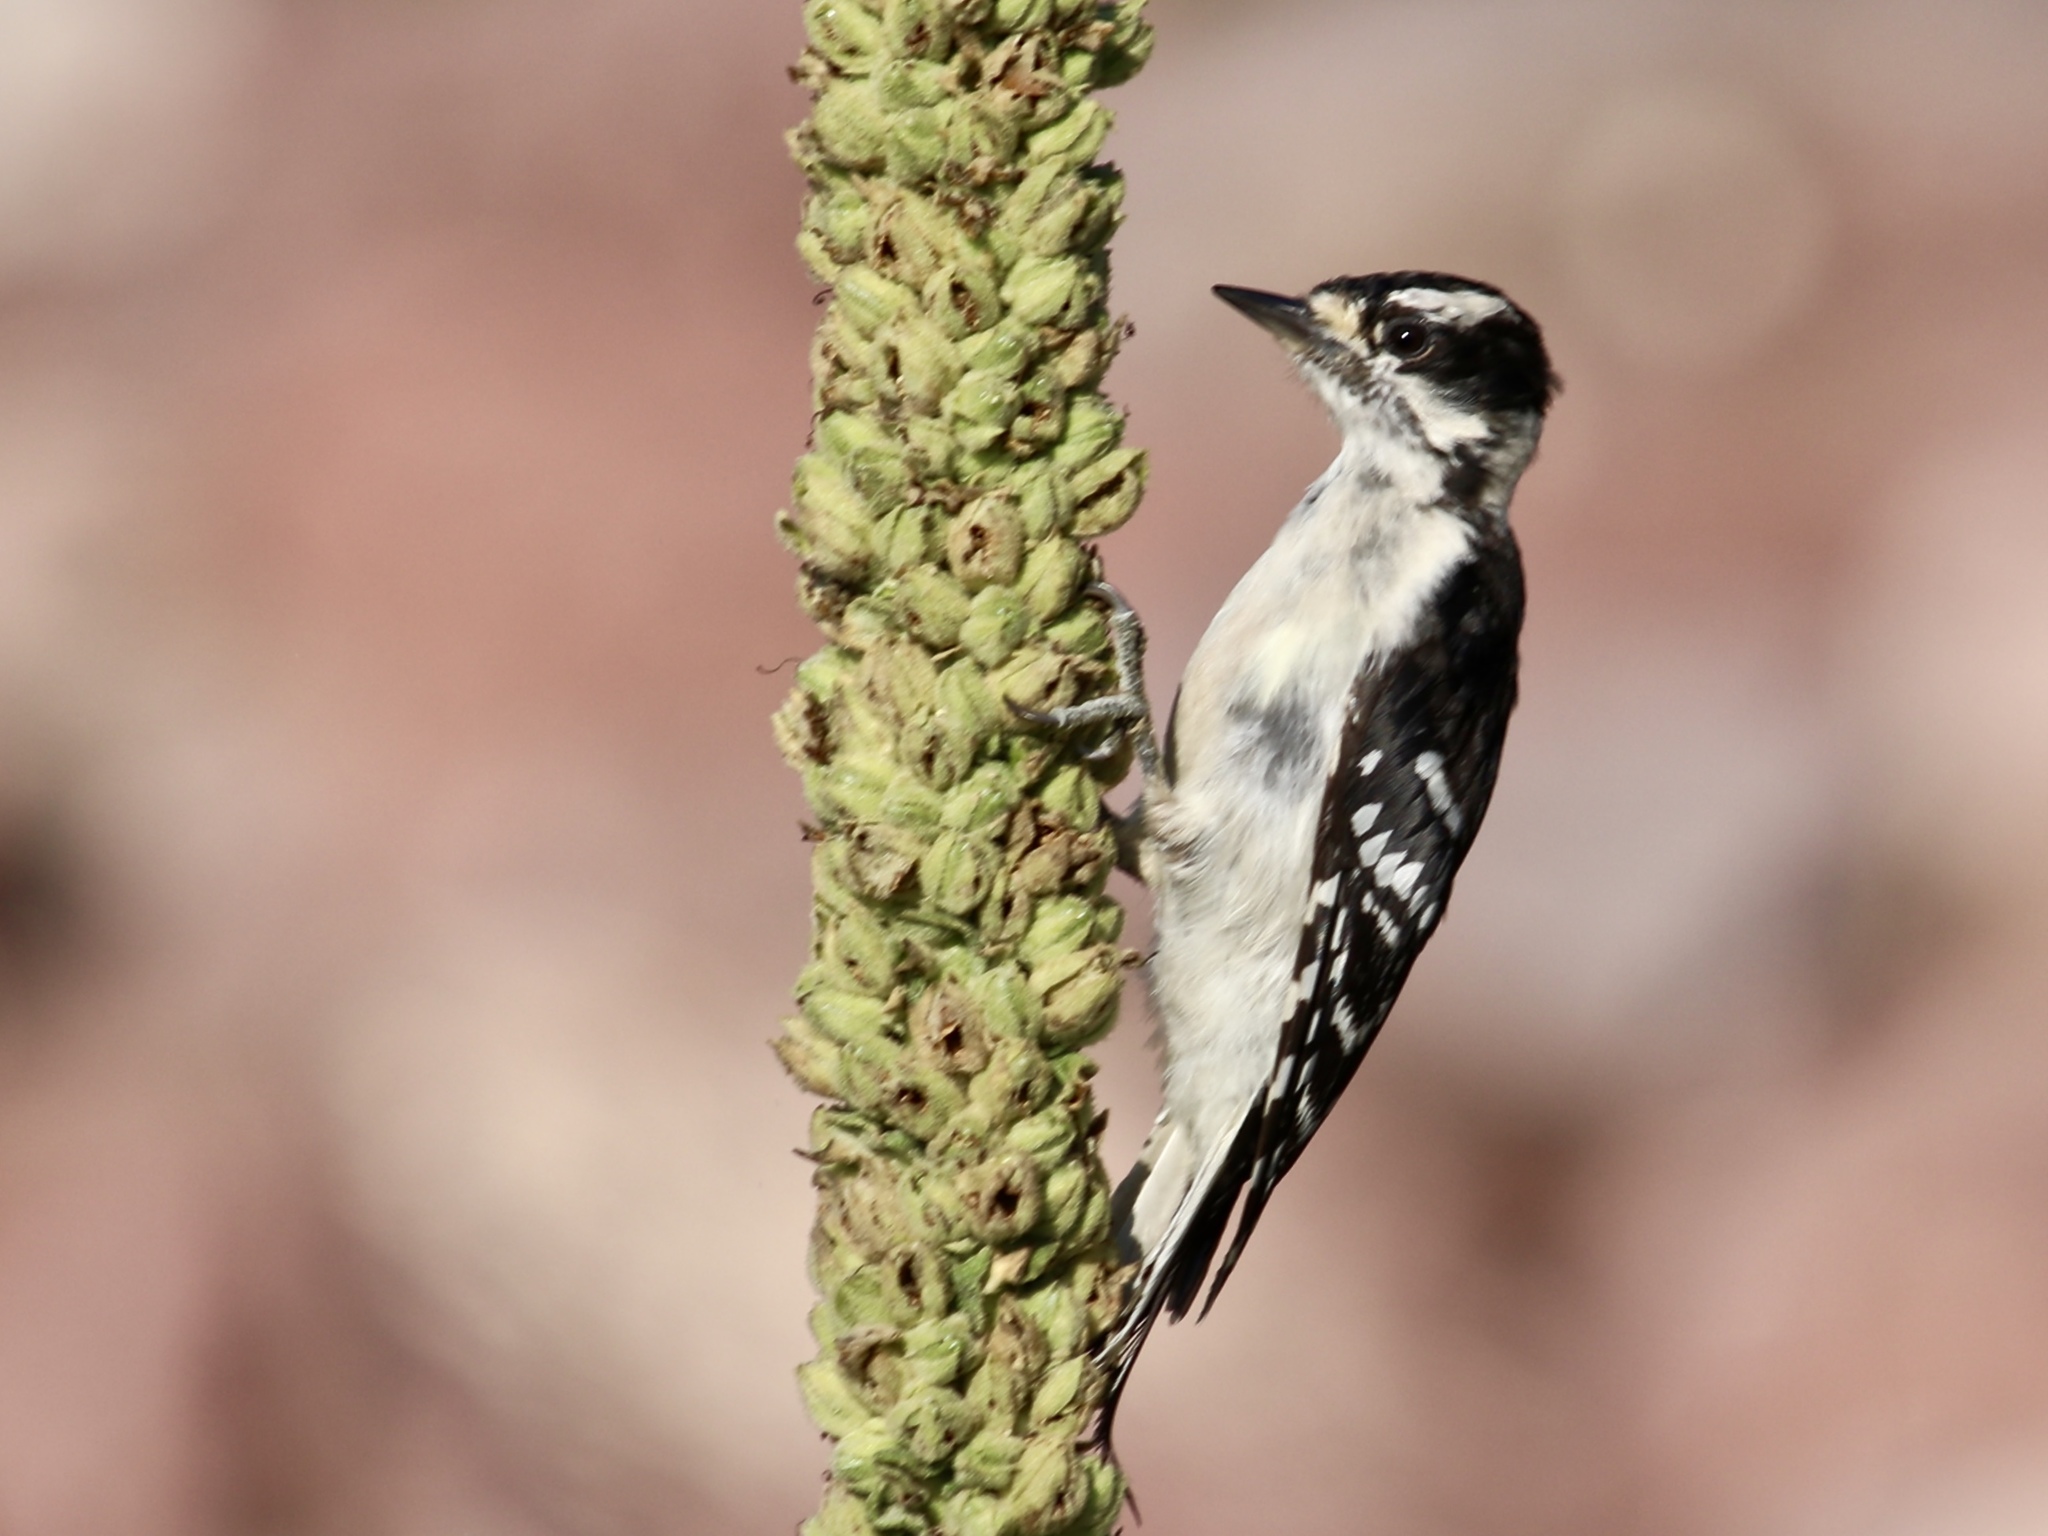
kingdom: Animalia
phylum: Chordata
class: Aves
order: Piciformes
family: Picidae
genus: Dryobates
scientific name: Dryobates pubescens
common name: Downy woodpecker
